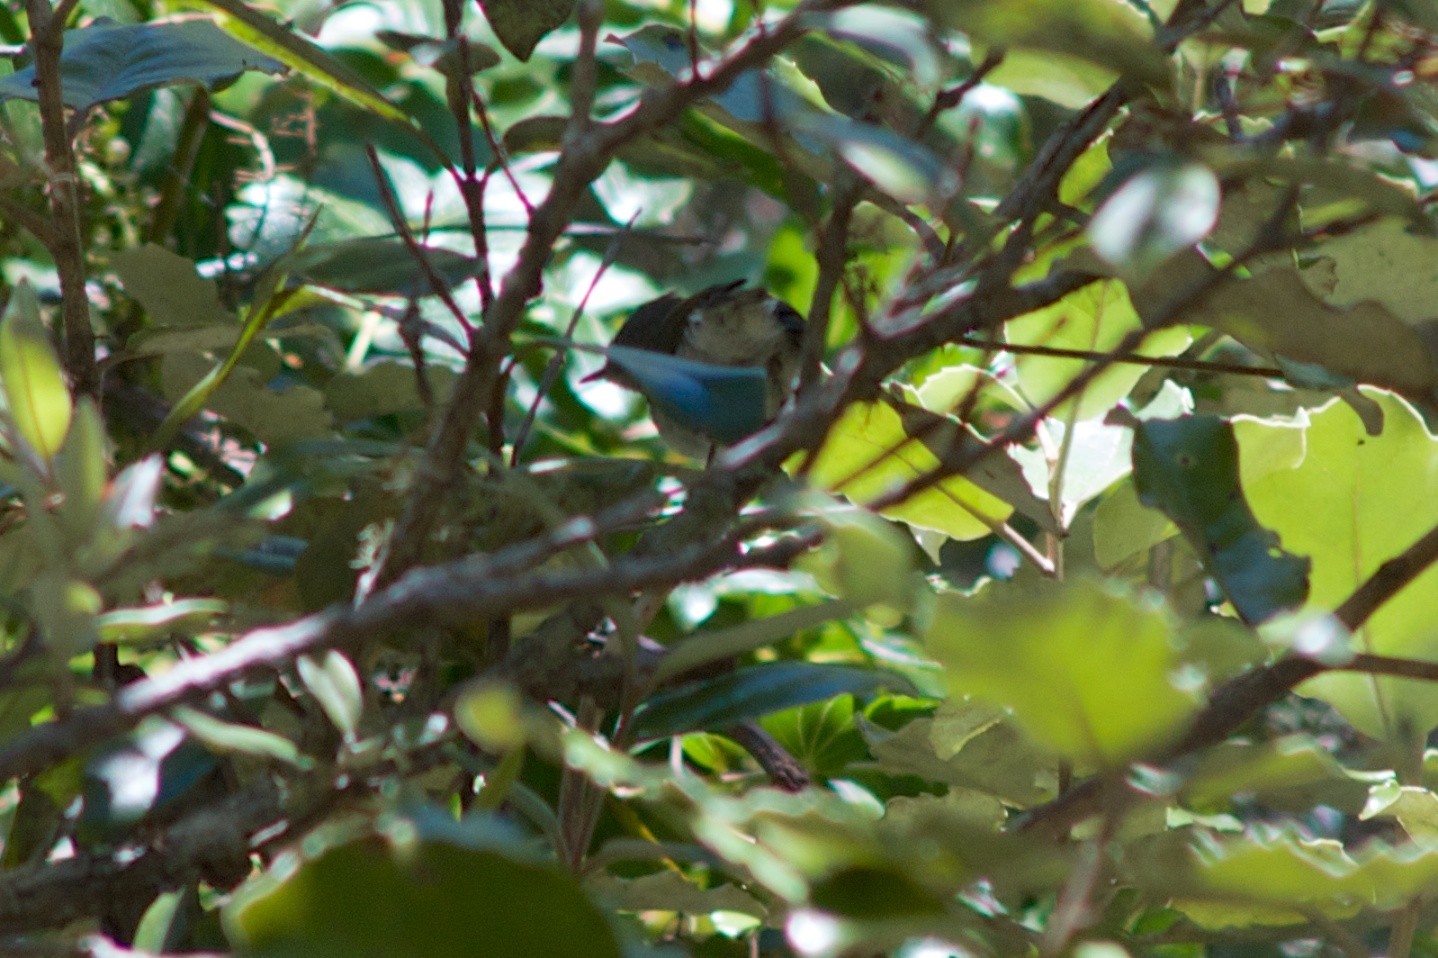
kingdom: Animalia
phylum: Chordata
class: Aves
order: Passeriformes
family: Zosteropidae
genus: Zosterops
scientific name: Zosterops lateralis
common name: Silvereye
